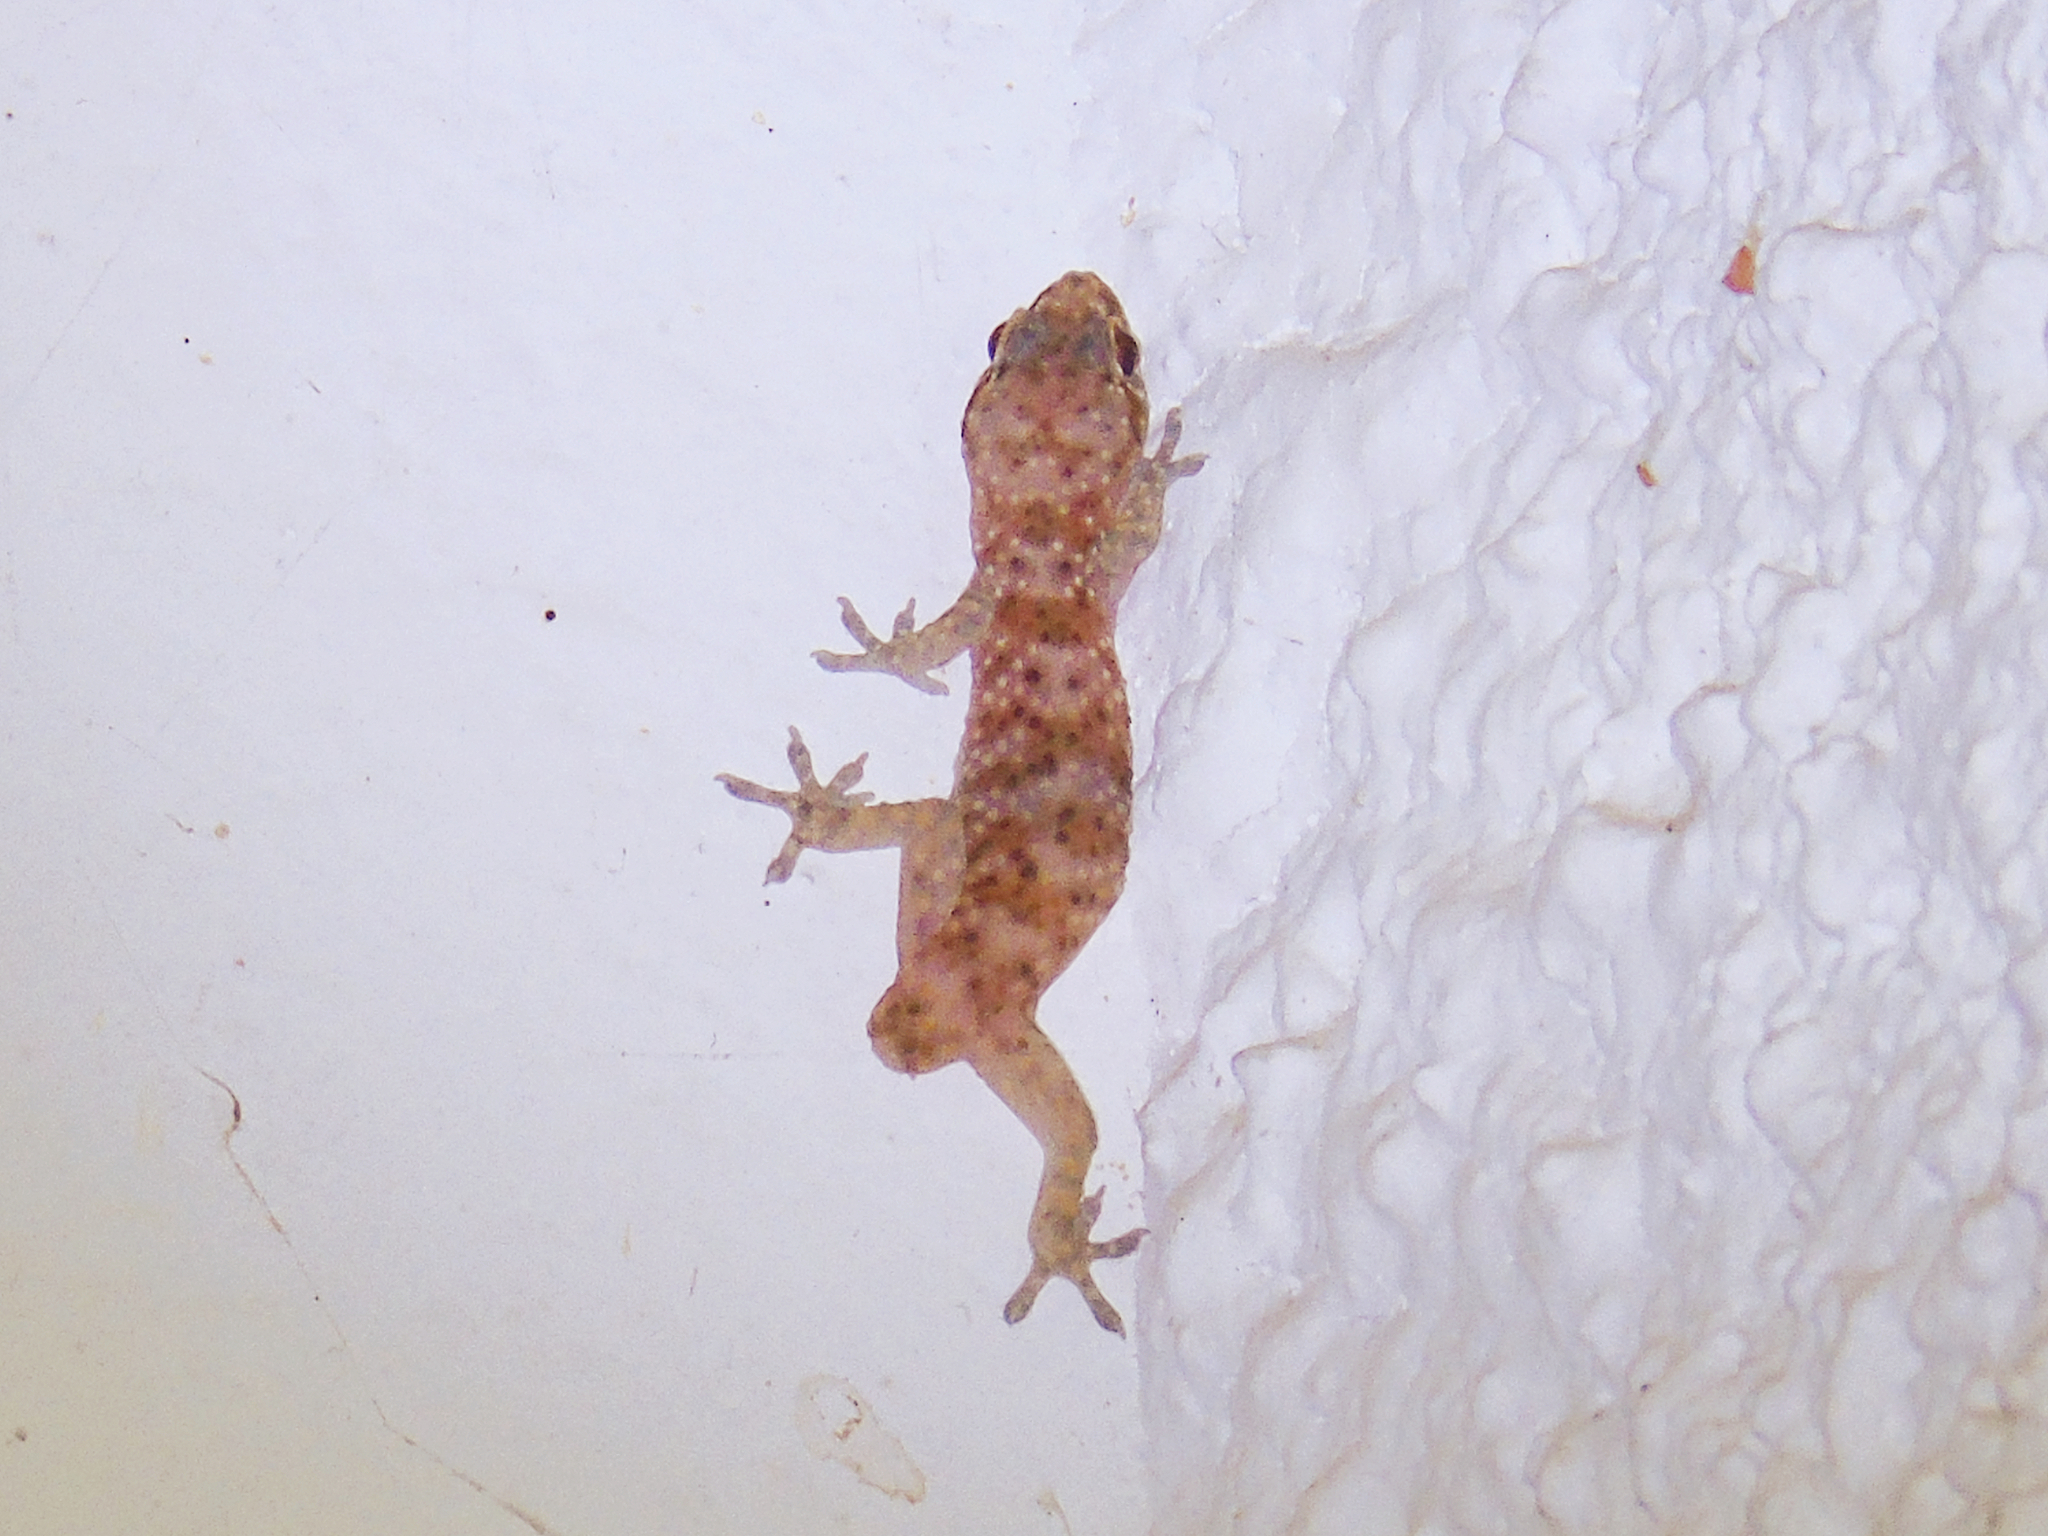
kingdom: Animalia
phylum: Chordata
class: Squamata
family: Gekkonidae
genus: Hemidactylus
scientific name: Hemidactylus turcicus
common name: Turkish gecko
